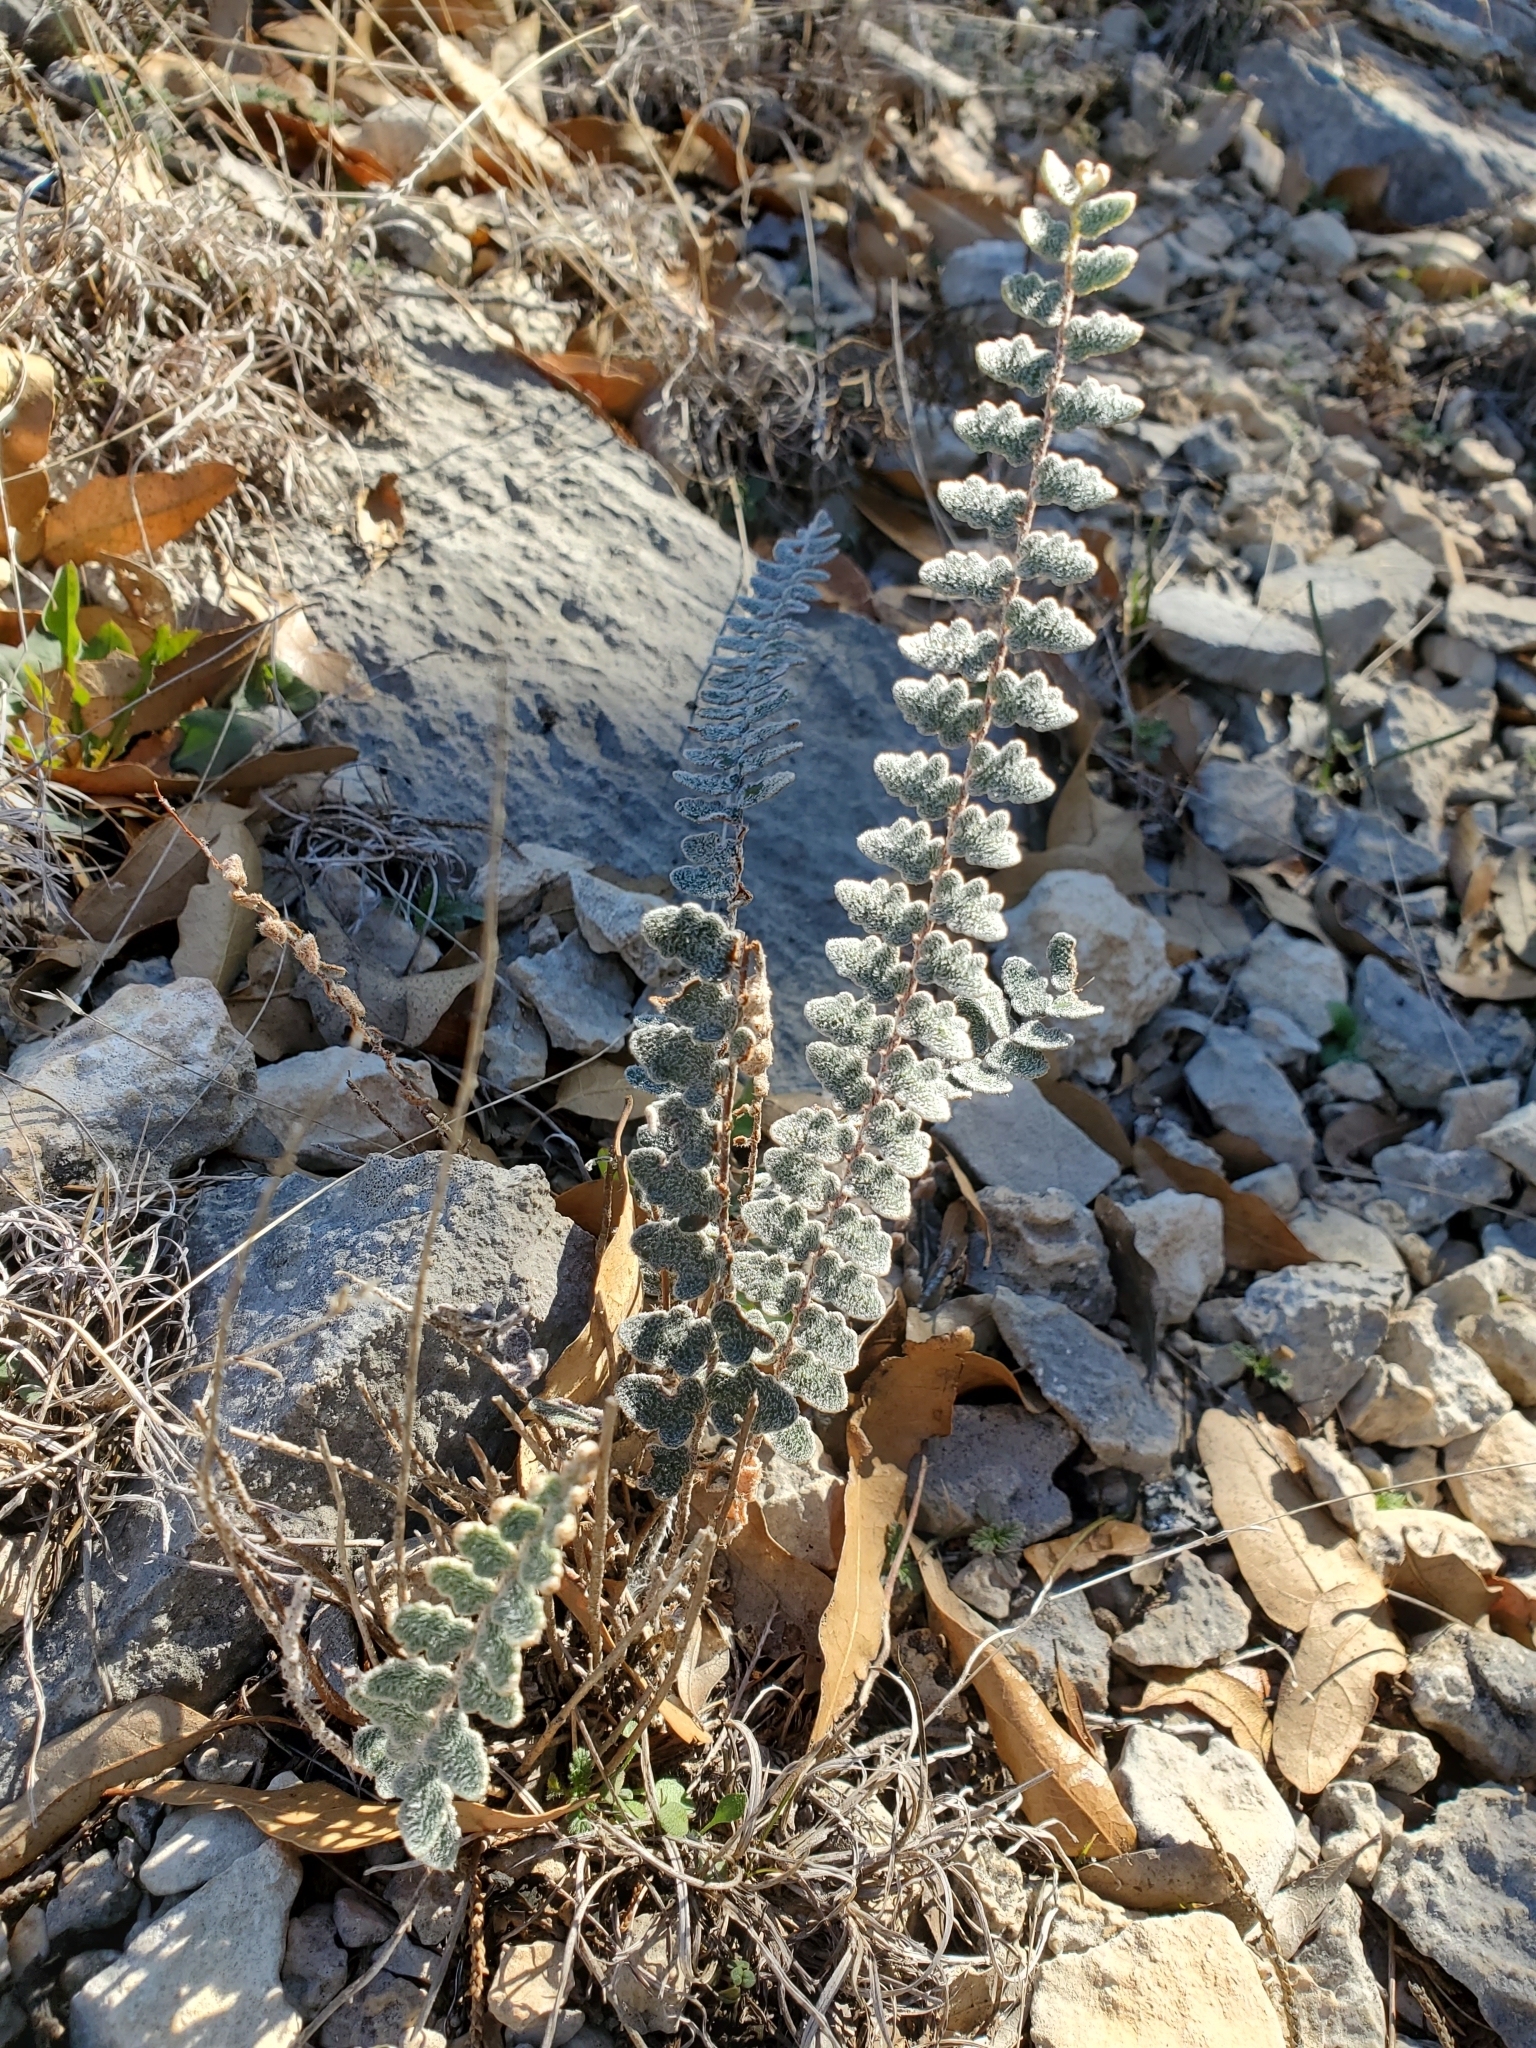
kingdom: Plantae
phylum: Tracheophyta
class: Polypodiopsida
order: Polypodiales
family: Pteridaceae
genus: Astrolepis
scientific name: Astrolepis integerrima
